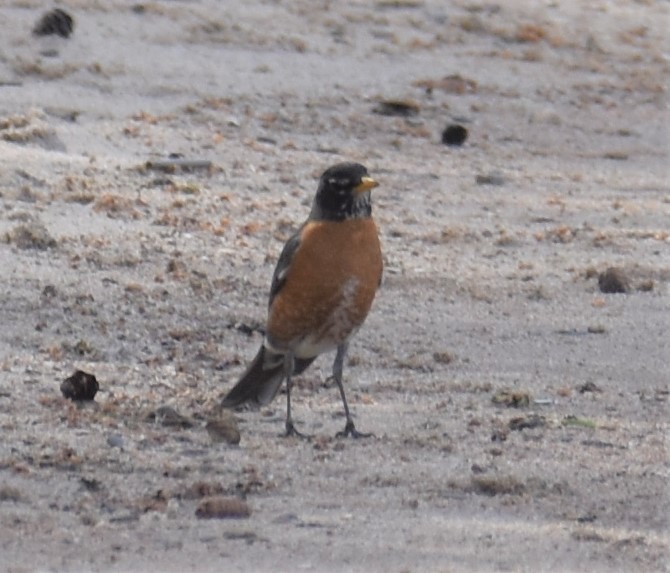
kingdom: Animalia
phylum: Chordata
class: Aves
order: Passeriformes
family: Turdidae
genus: Turdus
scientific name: Turdus migratorius
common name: American robin
